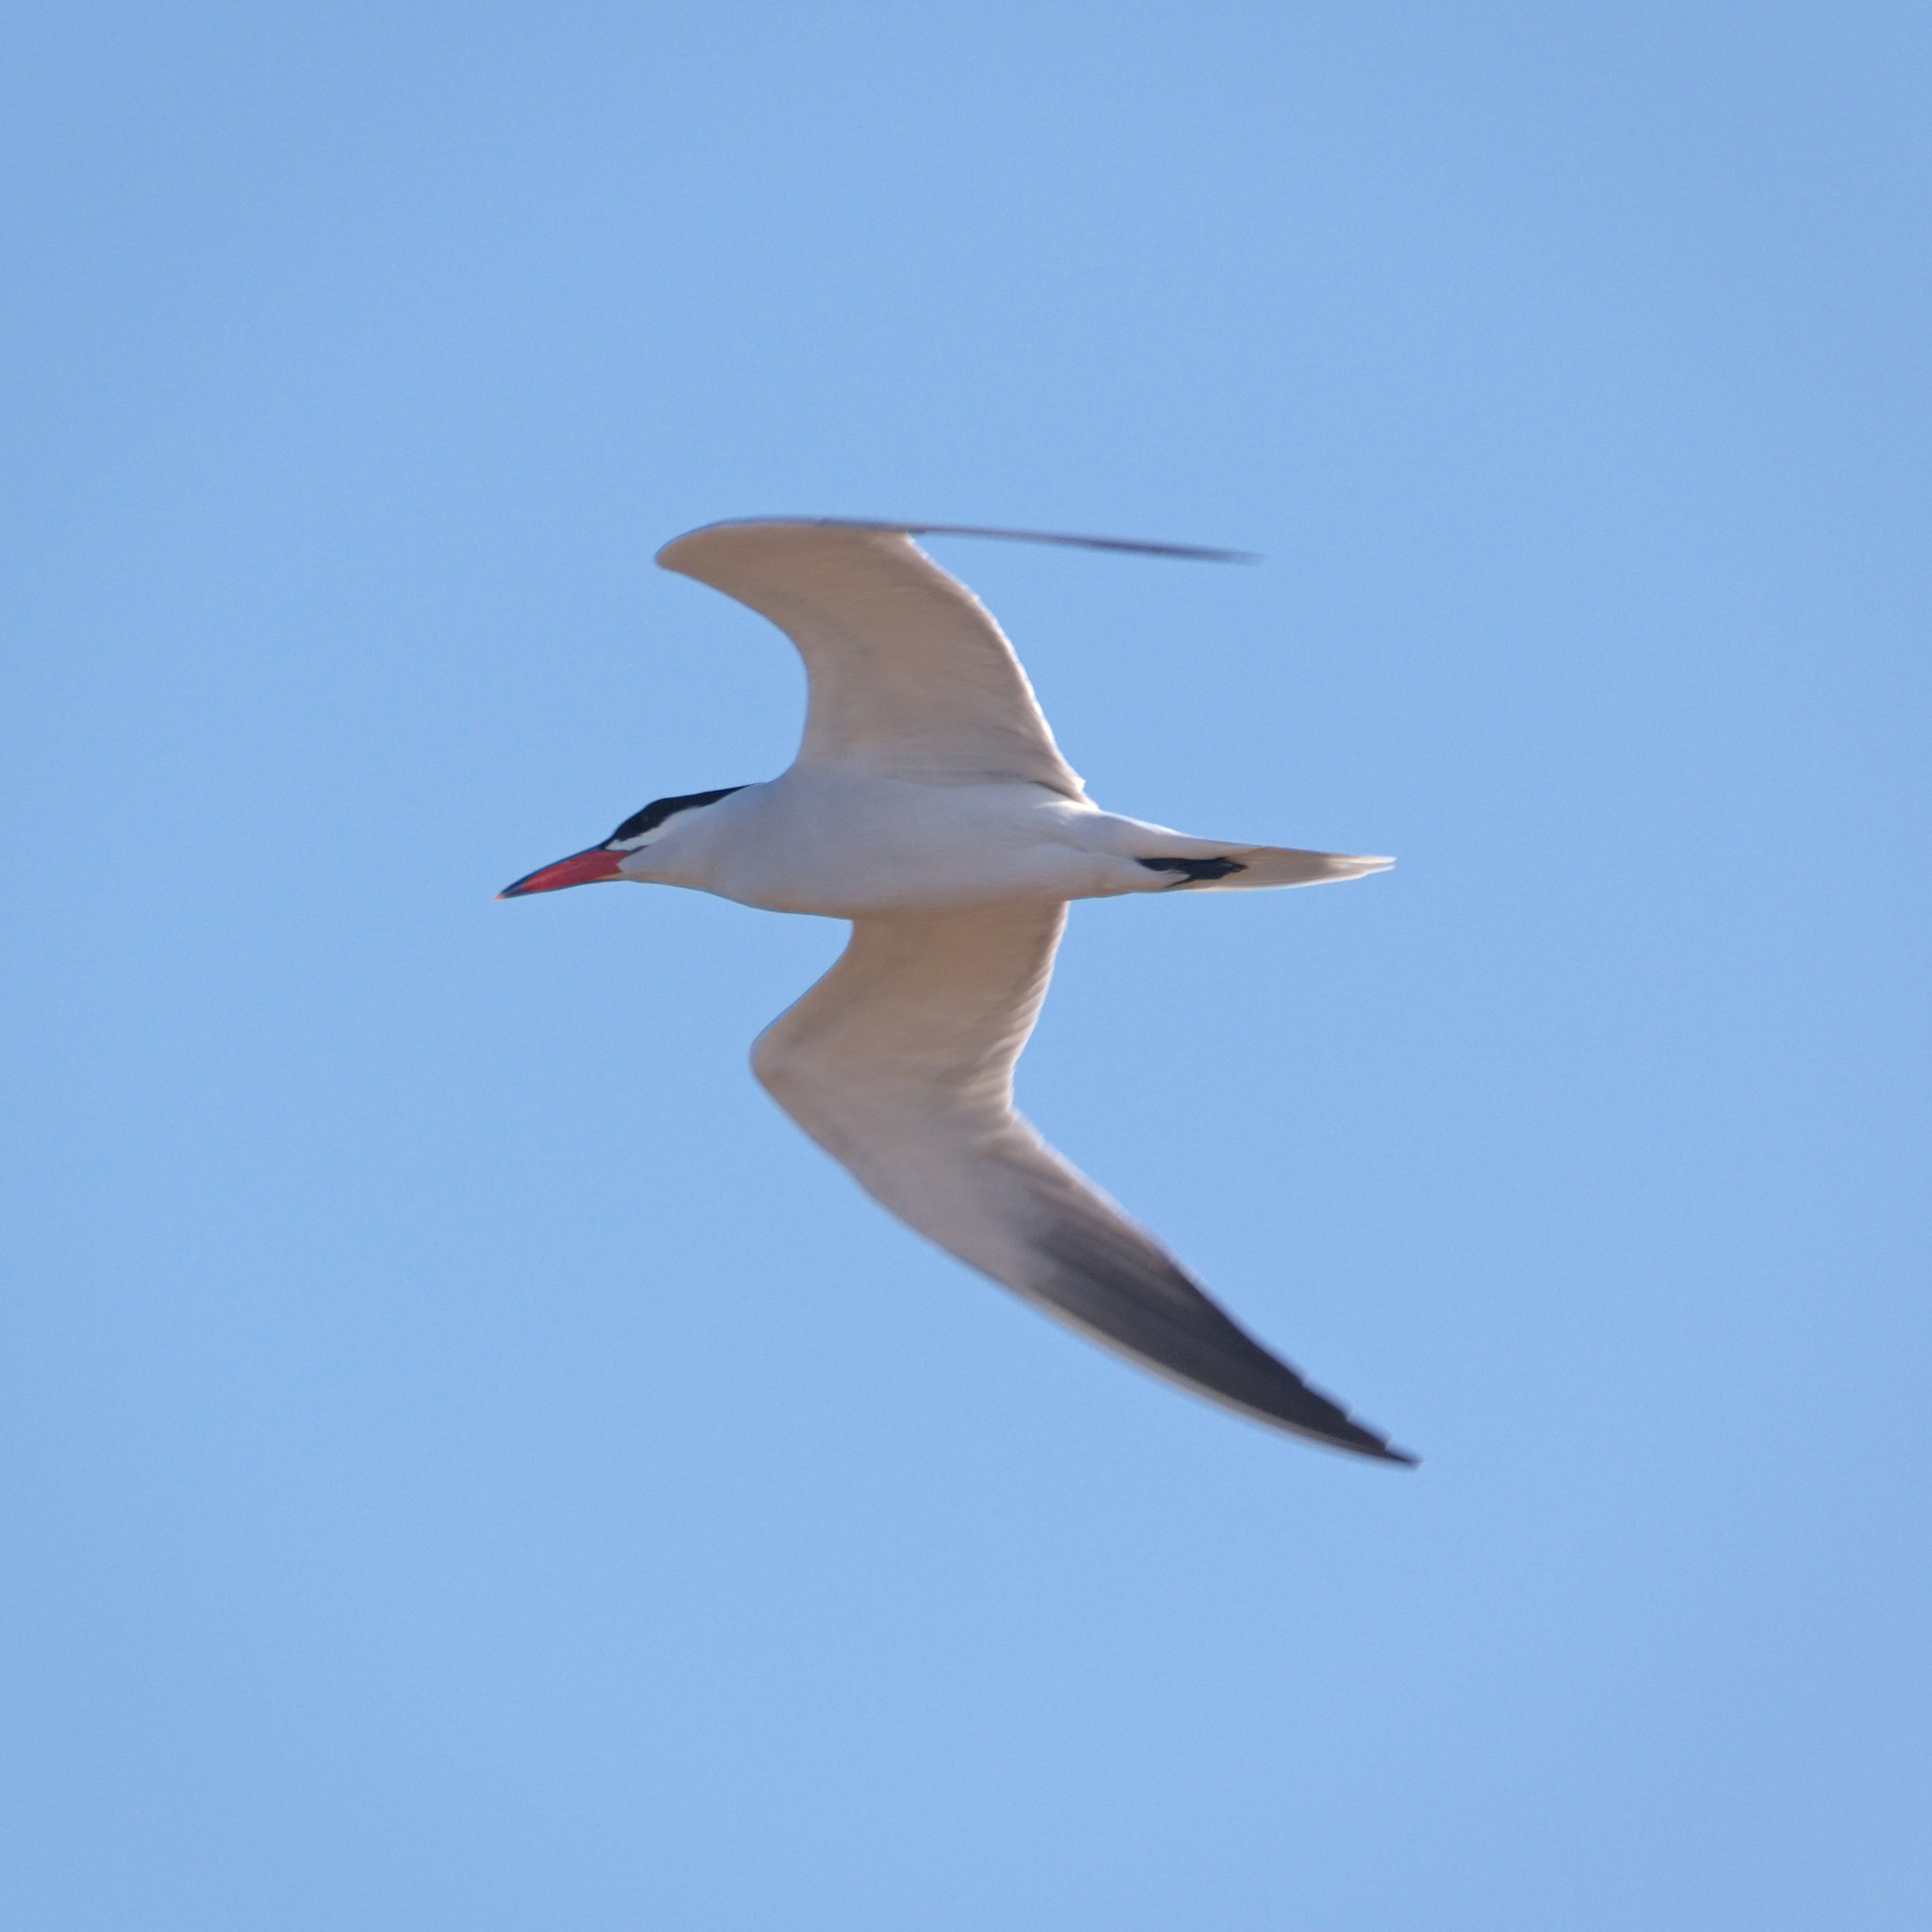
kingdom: Animalia
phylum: Chordata
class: Aves
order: Charadriiformes
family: Laridae
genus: Hydroprogne
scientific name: Hydroprogne caspia
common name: Caspian tern
